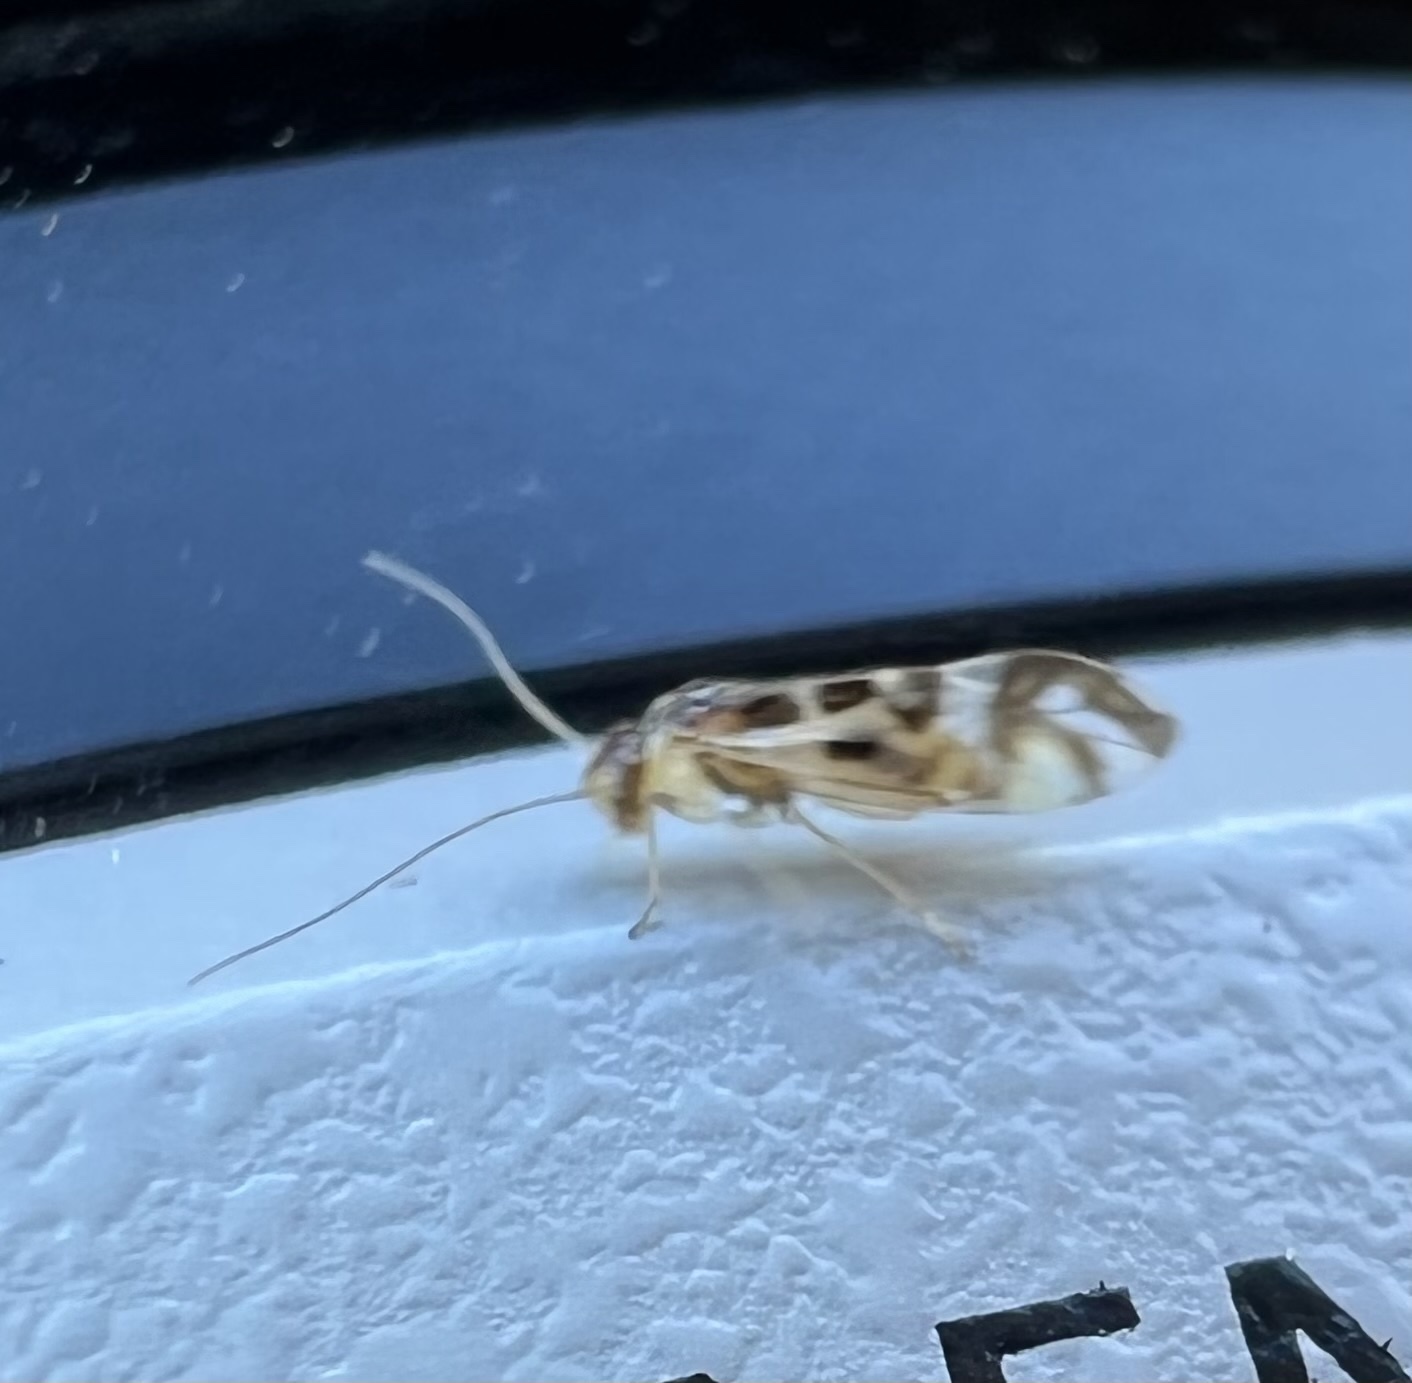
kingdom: Animalia
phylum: Arthropoda
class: Insecta
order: Psocodea
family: Stenopsocidae
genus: Graphopsocus
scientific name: Graphopsocus cruciatus
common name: Lizard bark louse
